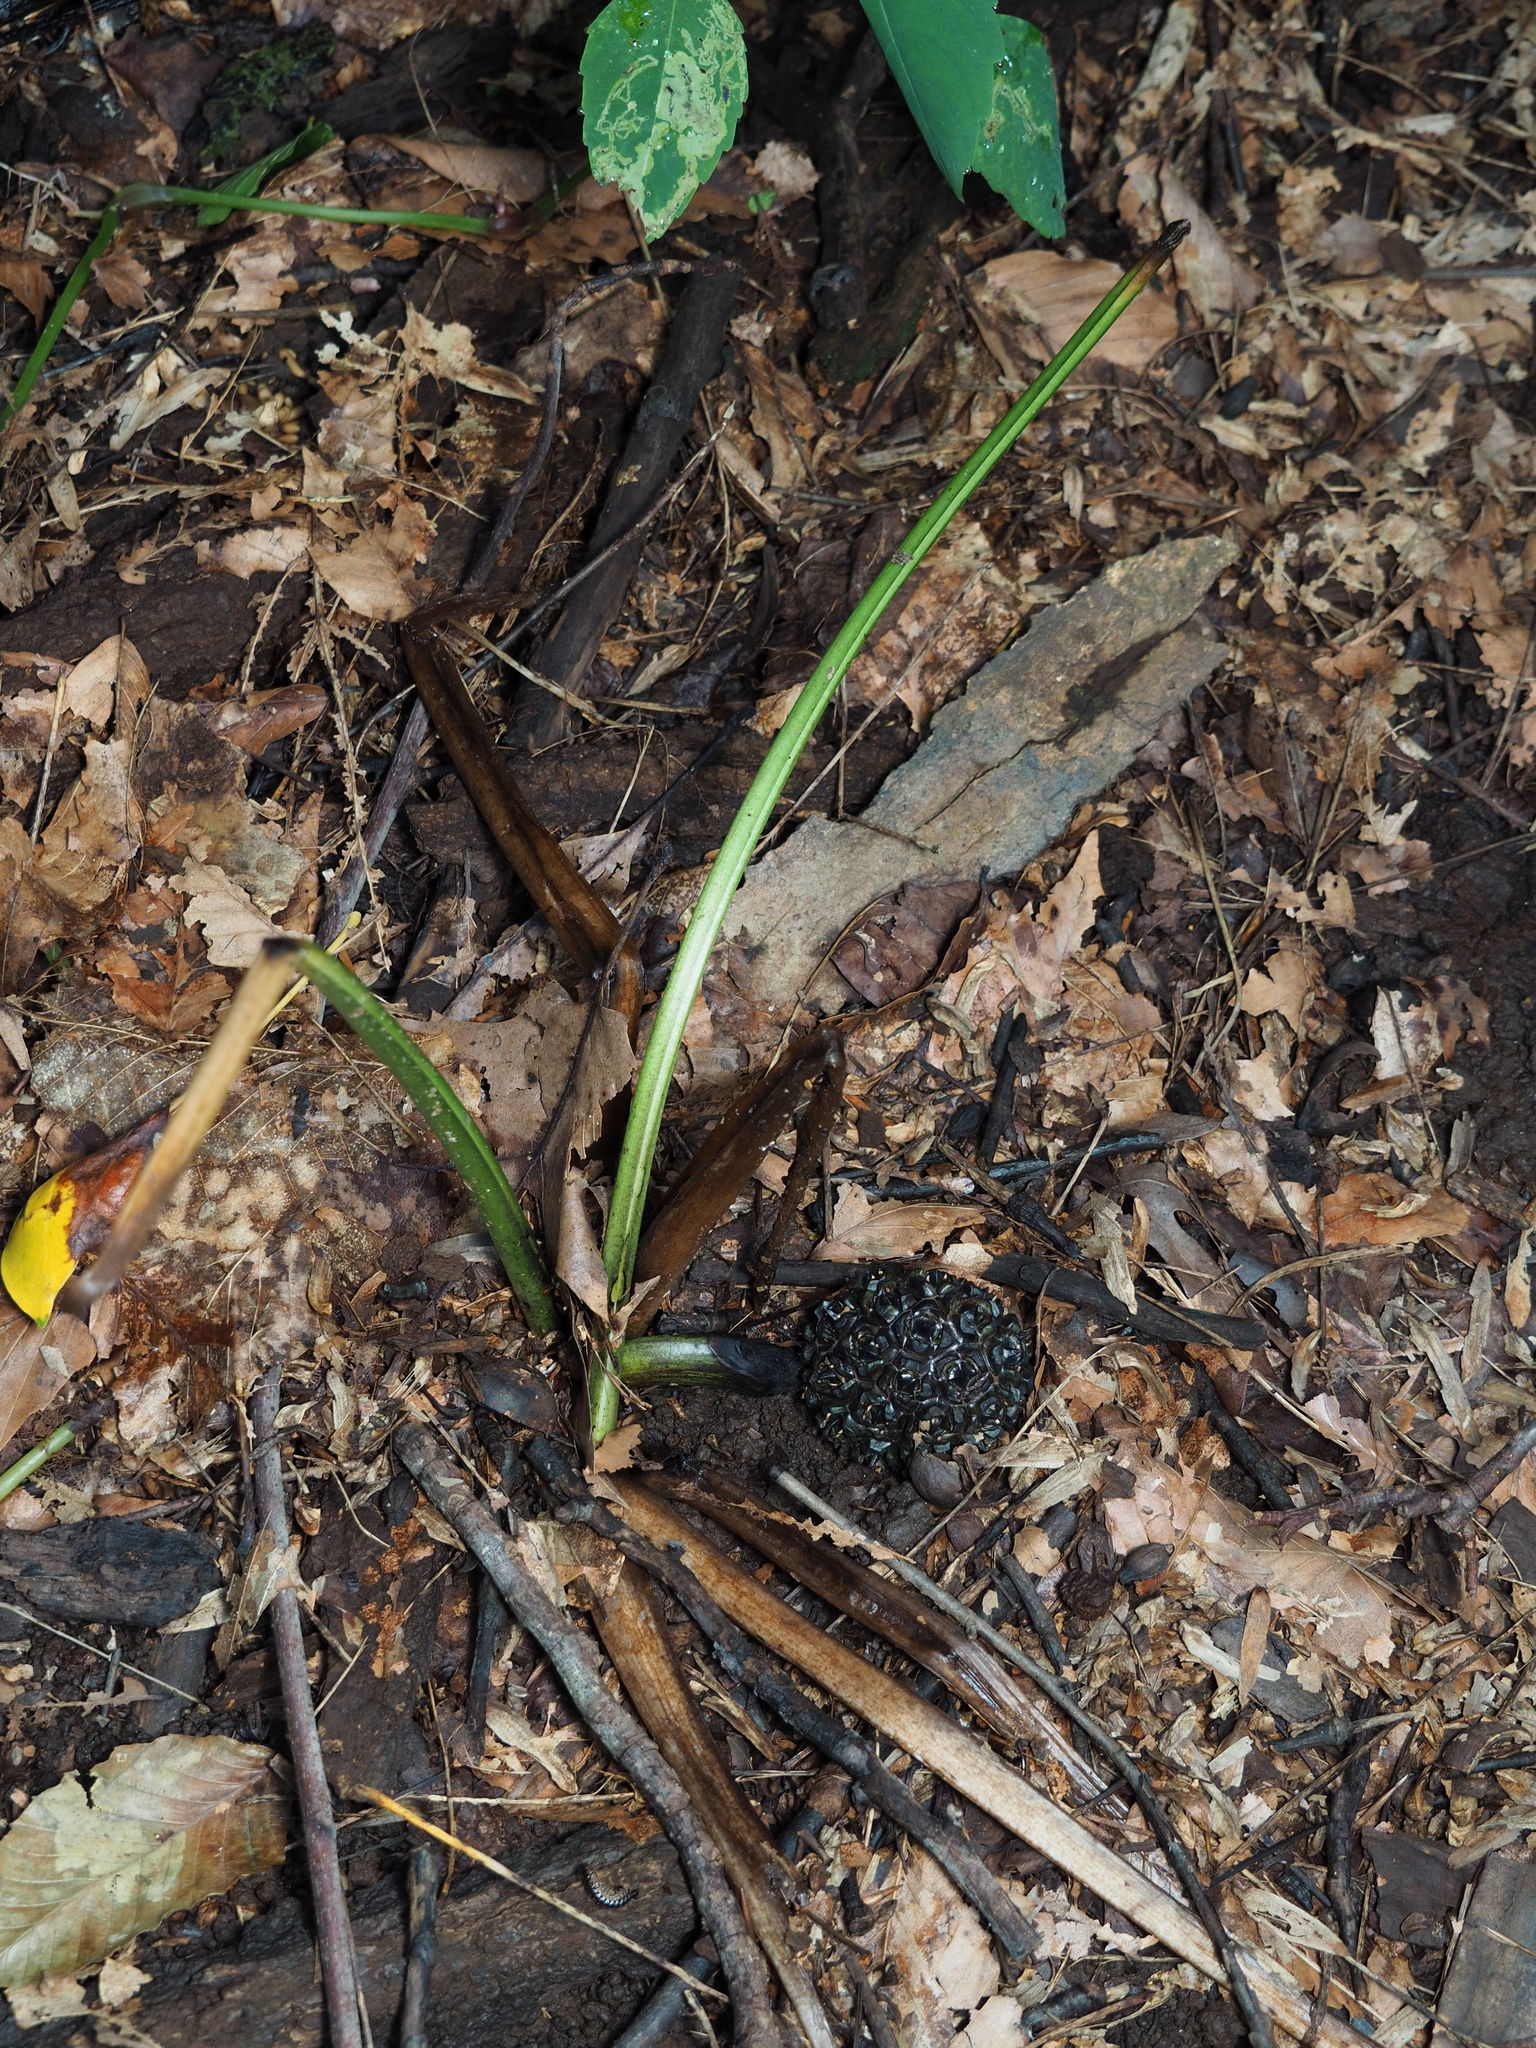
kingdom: Plantae
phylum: Tracheophyta
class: Liliopsida
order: Alismatales
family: Araceae
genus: Symplocarpus
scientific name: Symplocarpus foetidus
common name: Eastern skunk cabbage
